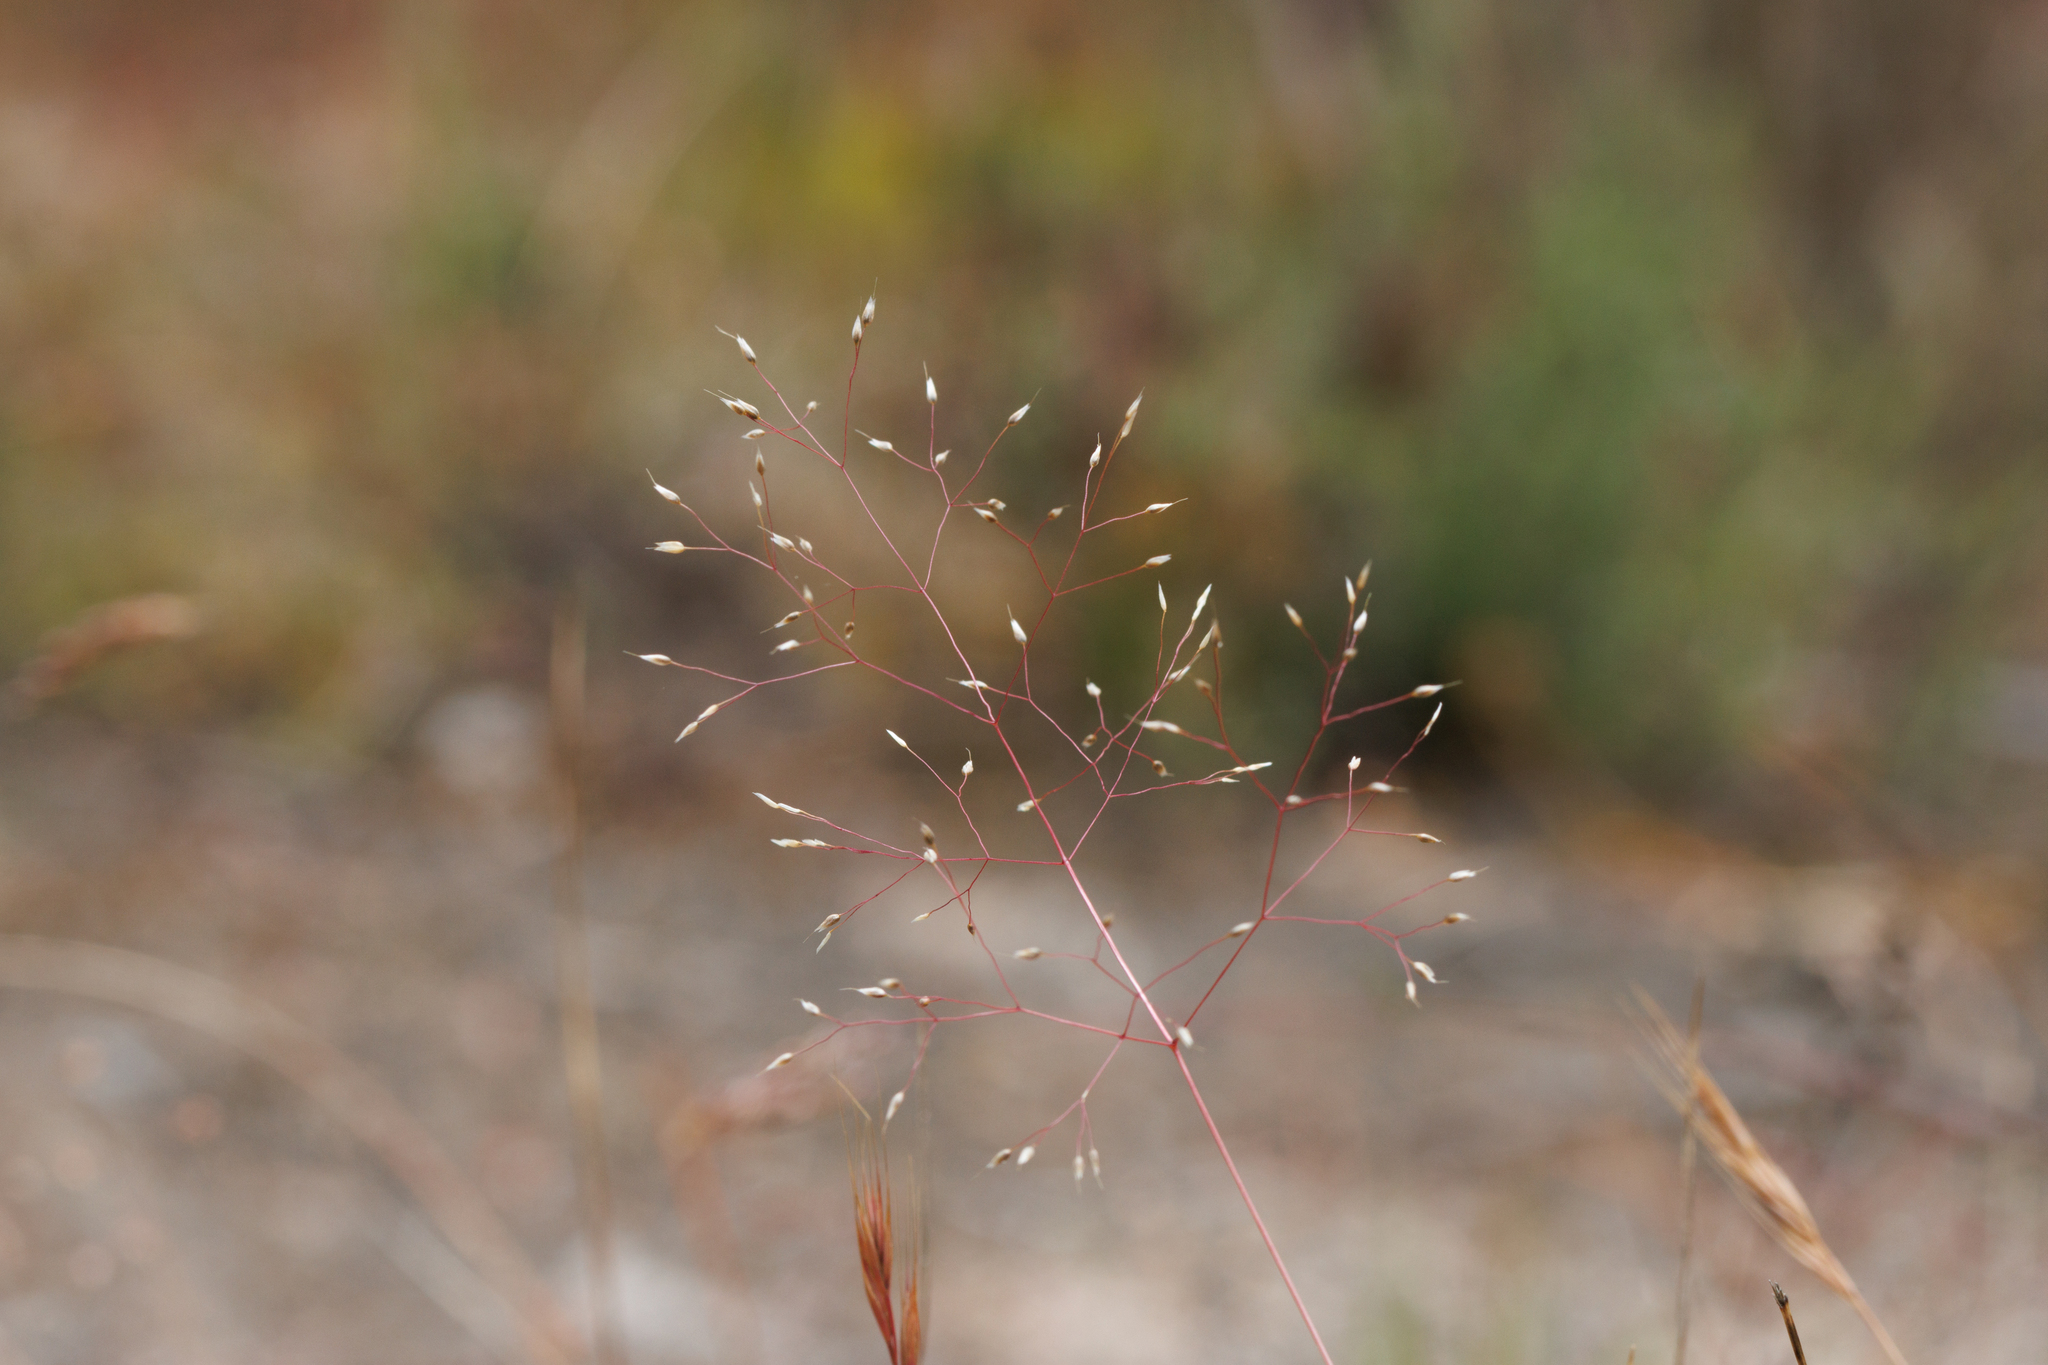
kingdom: Plantae
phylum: Tracheophyta
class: Liliopsida
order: Poales
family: Poaceae
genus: Aira
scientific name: Aira cupaniana
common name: Silver hairgrass
